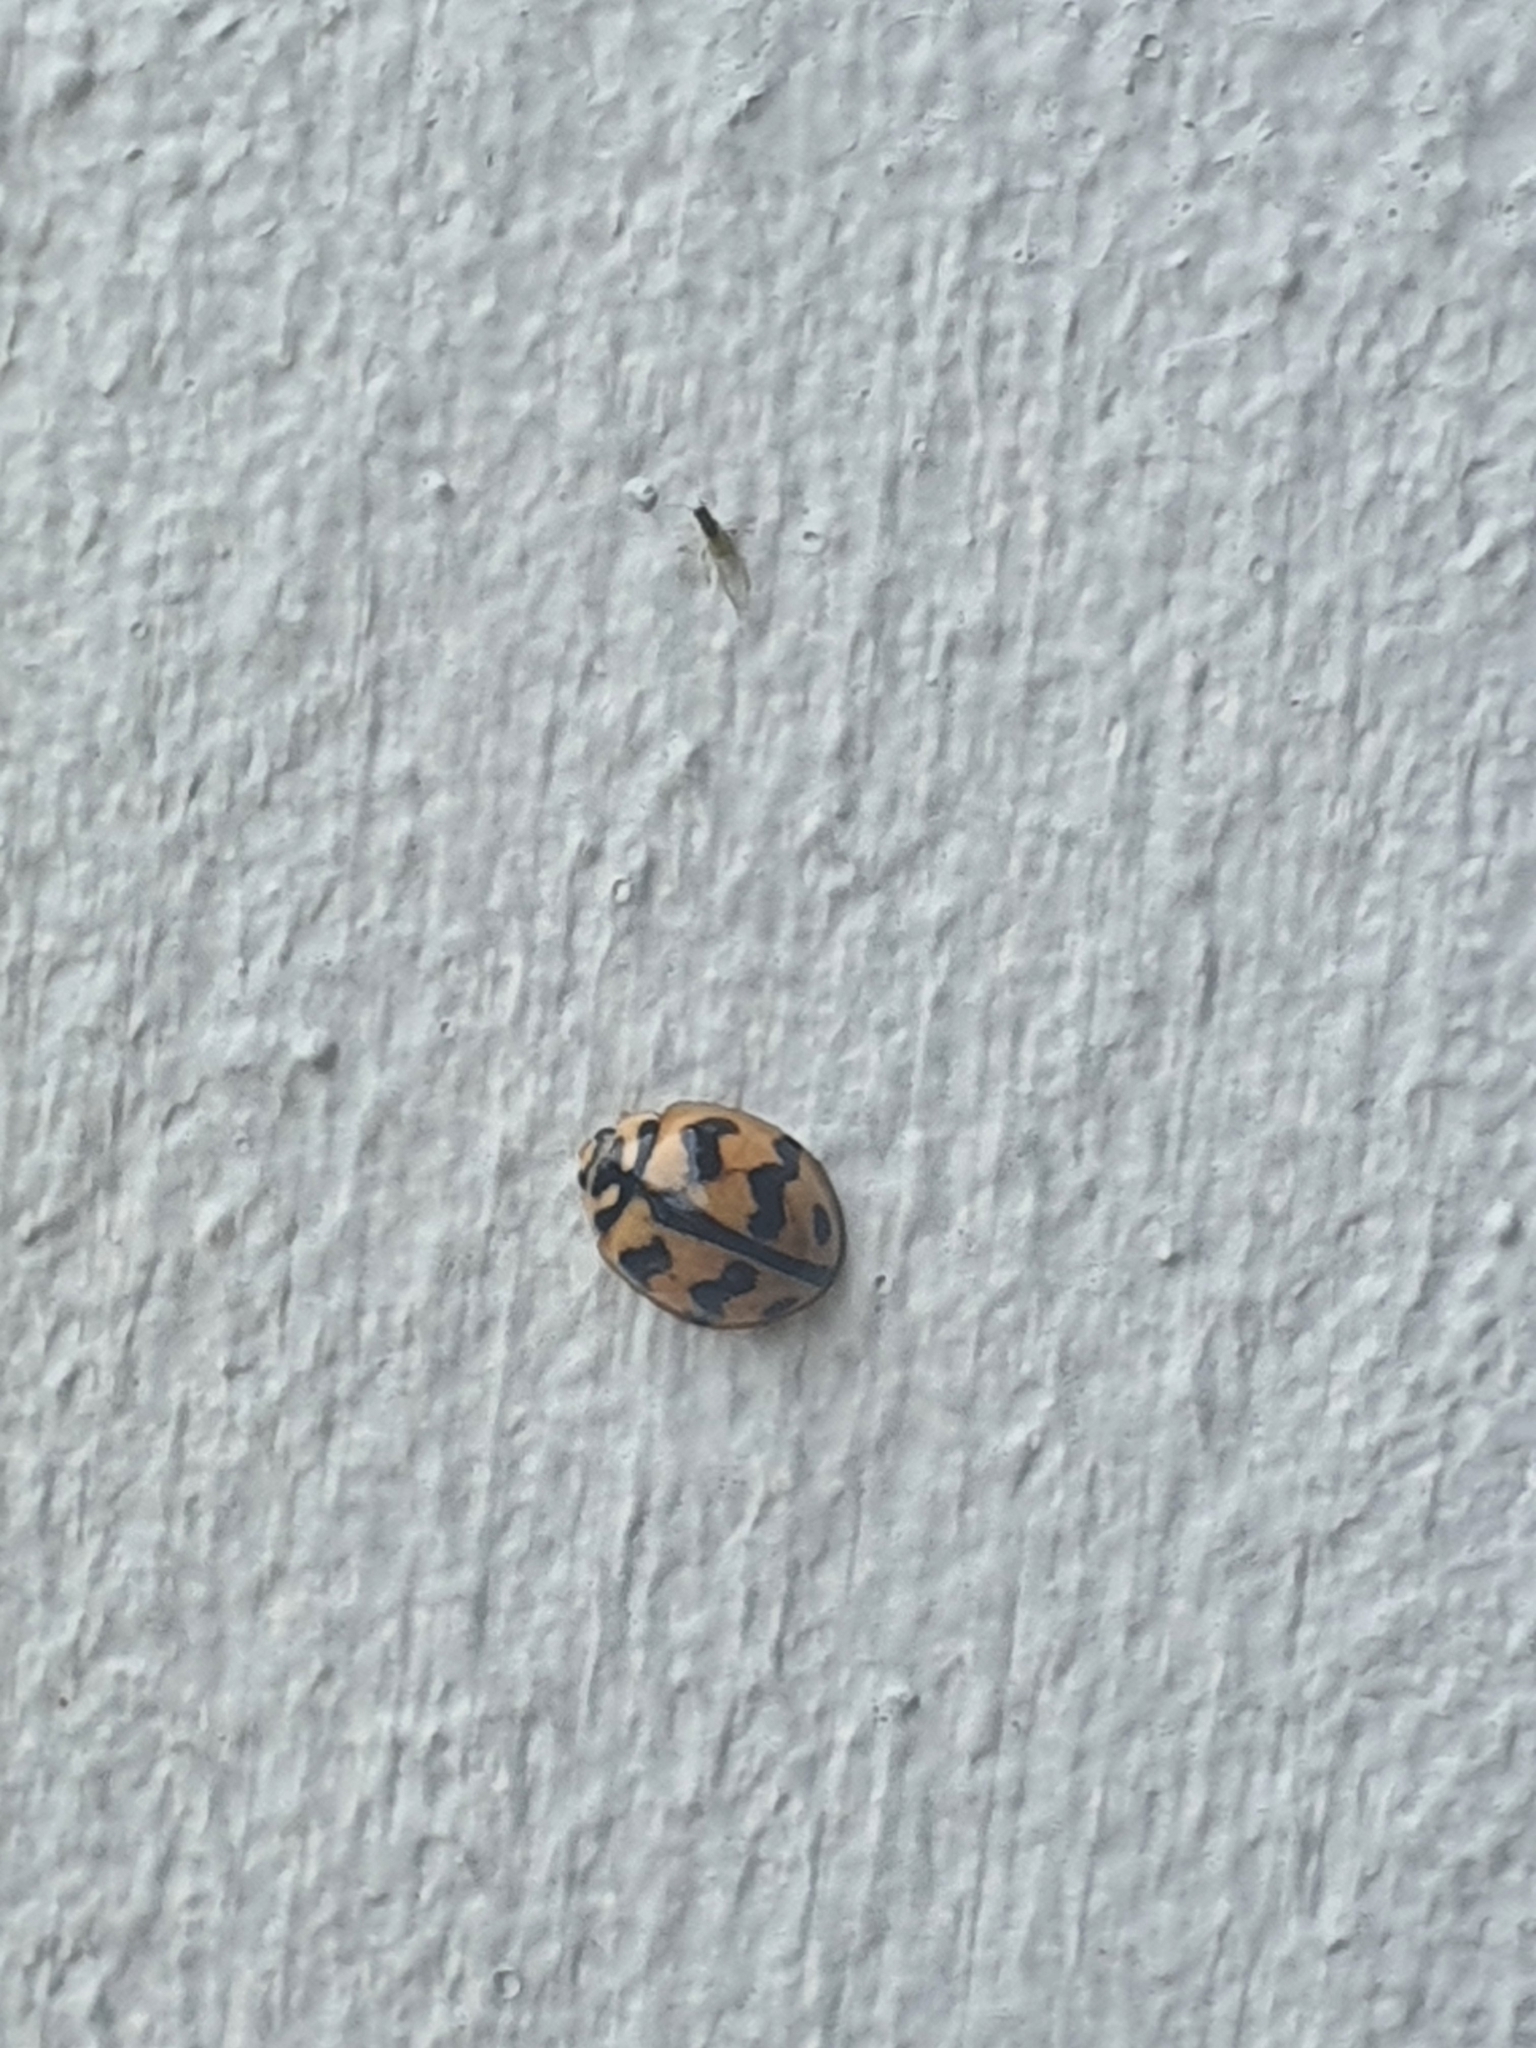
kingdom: Animalia
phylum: Arthropoda
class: Insecta
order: Coleoptera
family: Coccinellidae
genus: Cheilomenes
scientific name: Cheilomenes sexmaculata
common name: Ladybird beetle
